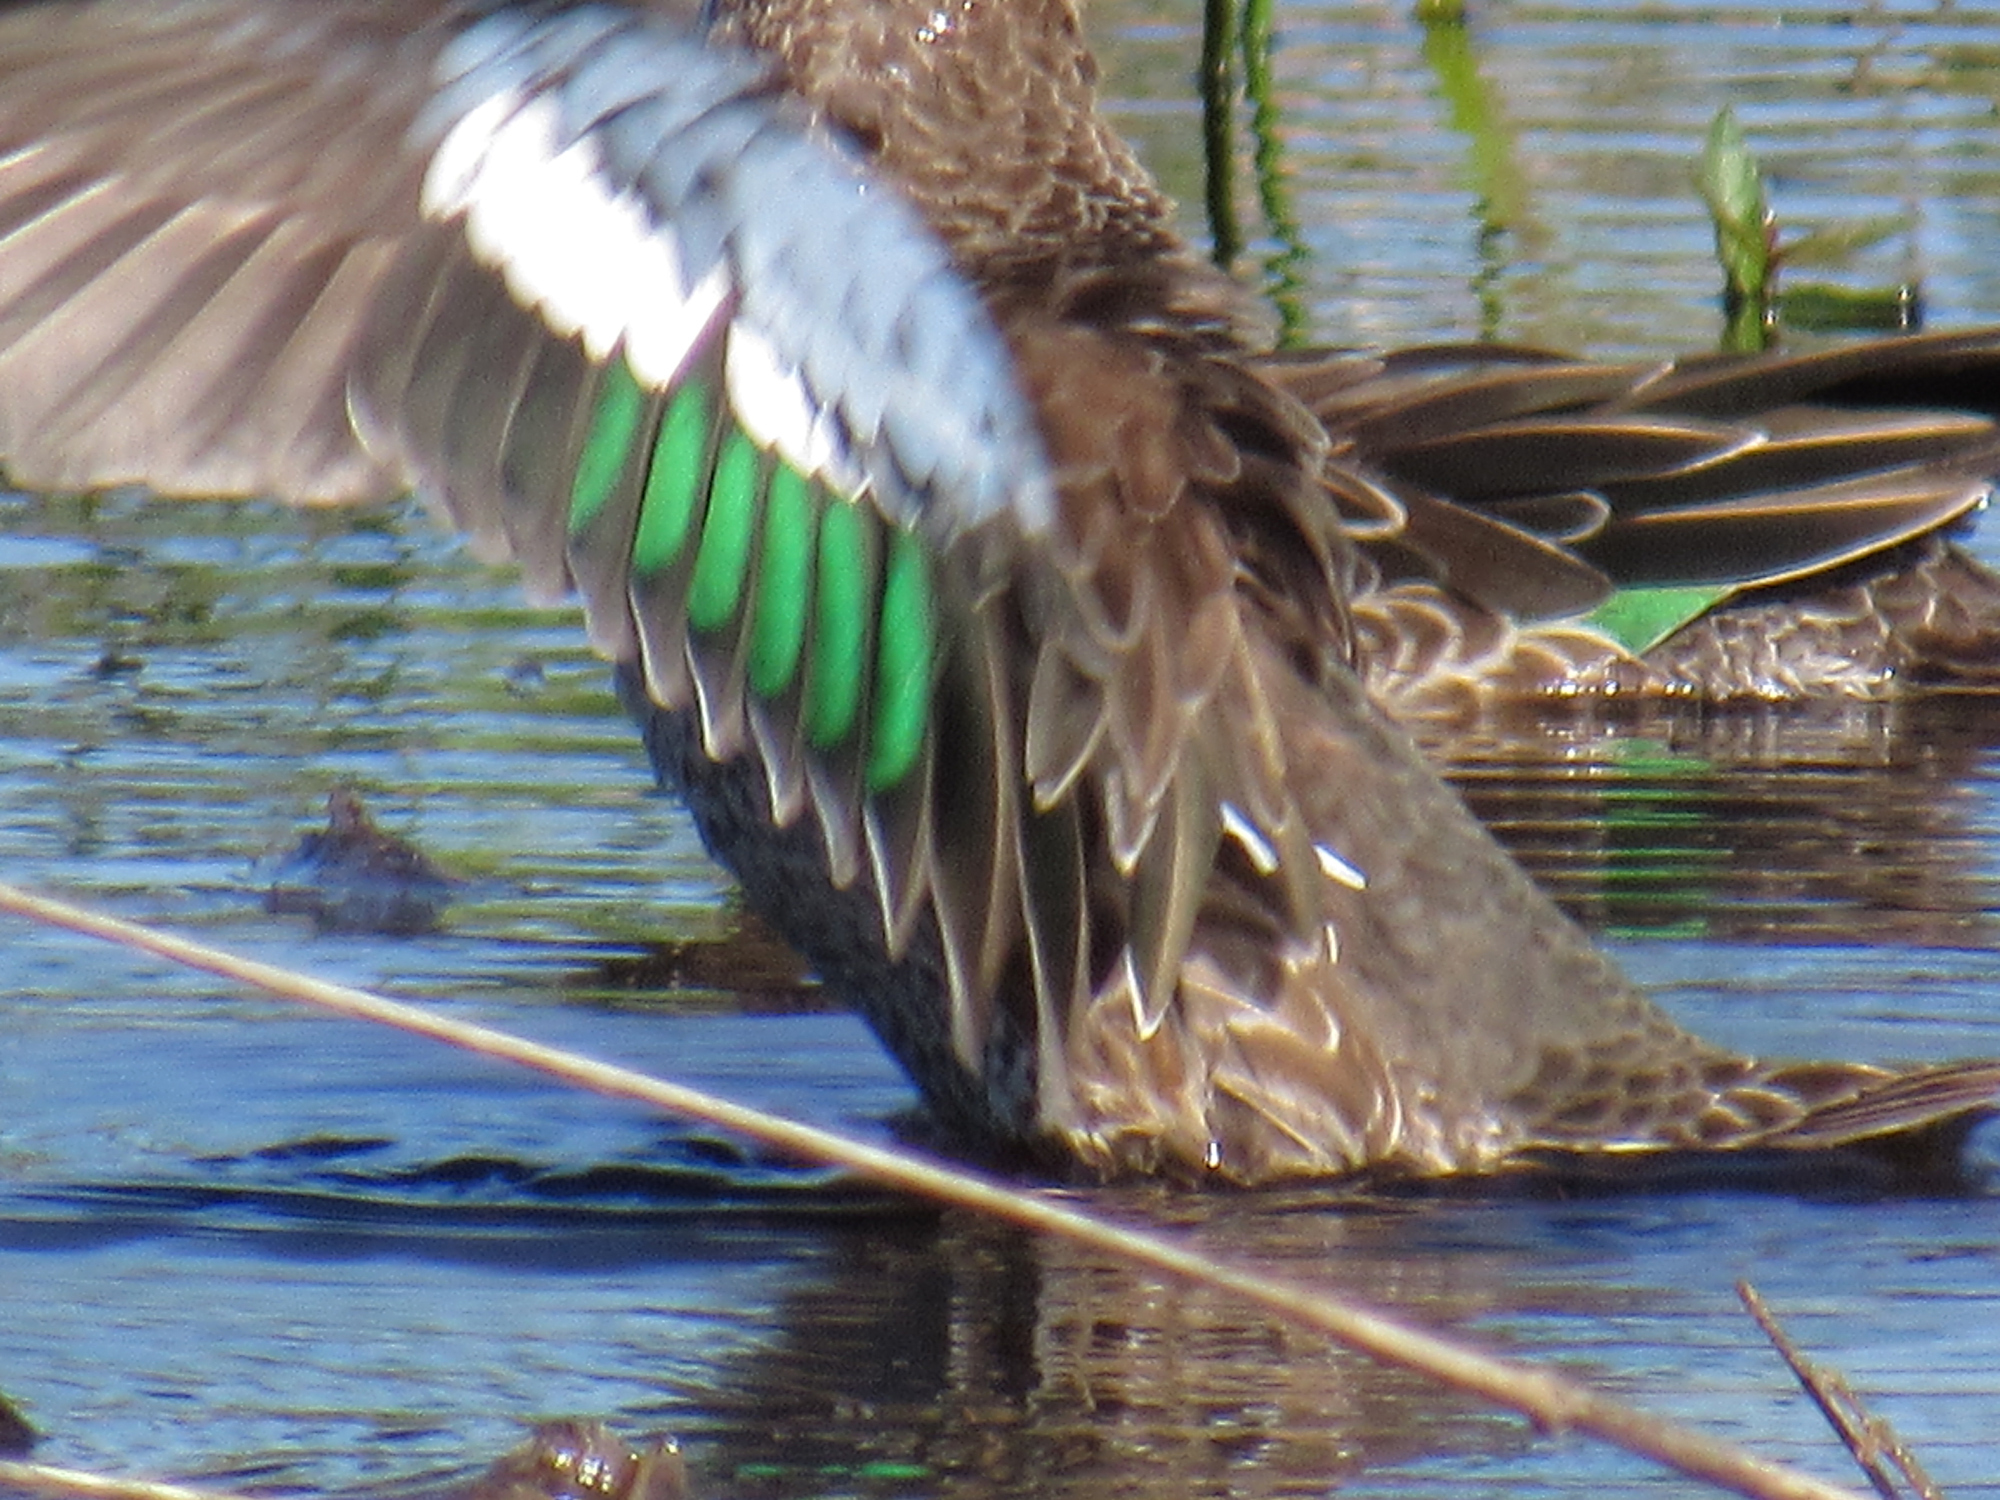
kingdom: Animalia
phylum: Chordata
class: Aves
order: Anseriformes
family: Anatidae
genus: Spatula
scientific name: Spatula discors
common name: Blue-winged teal
